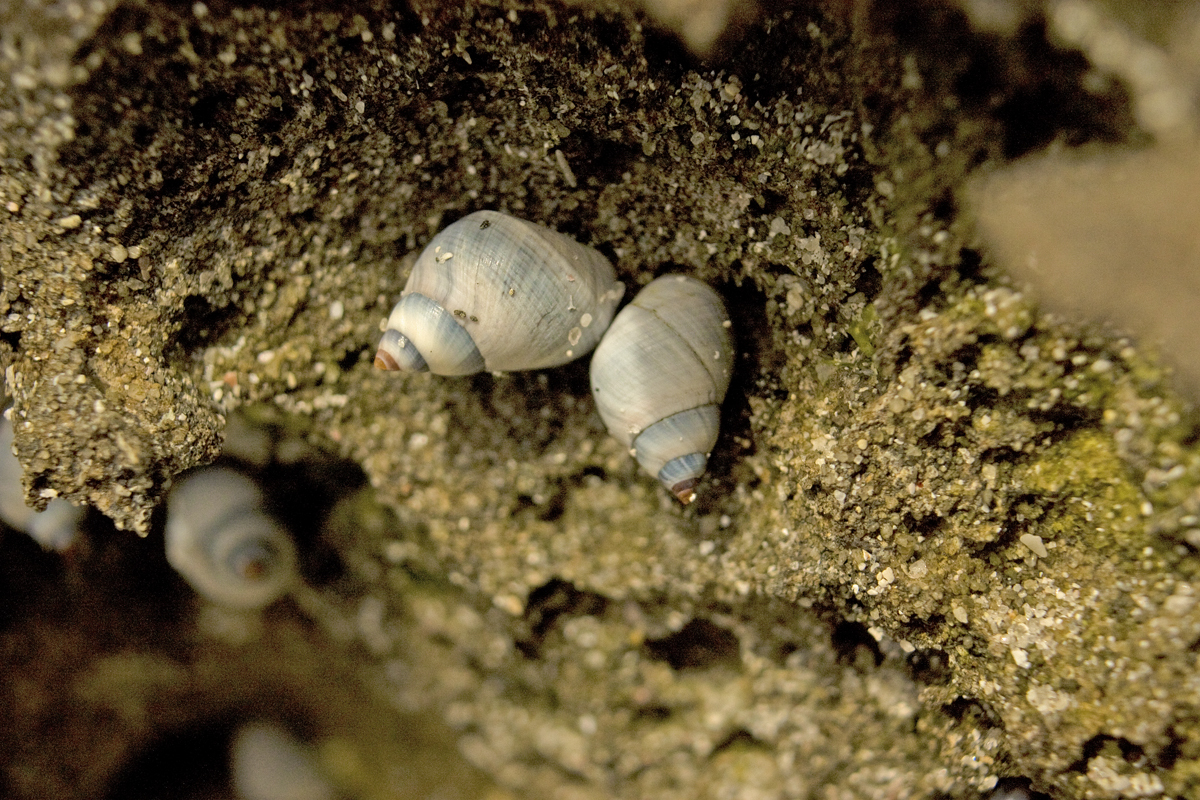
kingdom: Animalia
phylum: Mollusca
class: Gastropoda
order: Littorinimorpha
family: Littorinidae
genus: Austrolittorina
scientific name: Austrolittorina unifasciata
